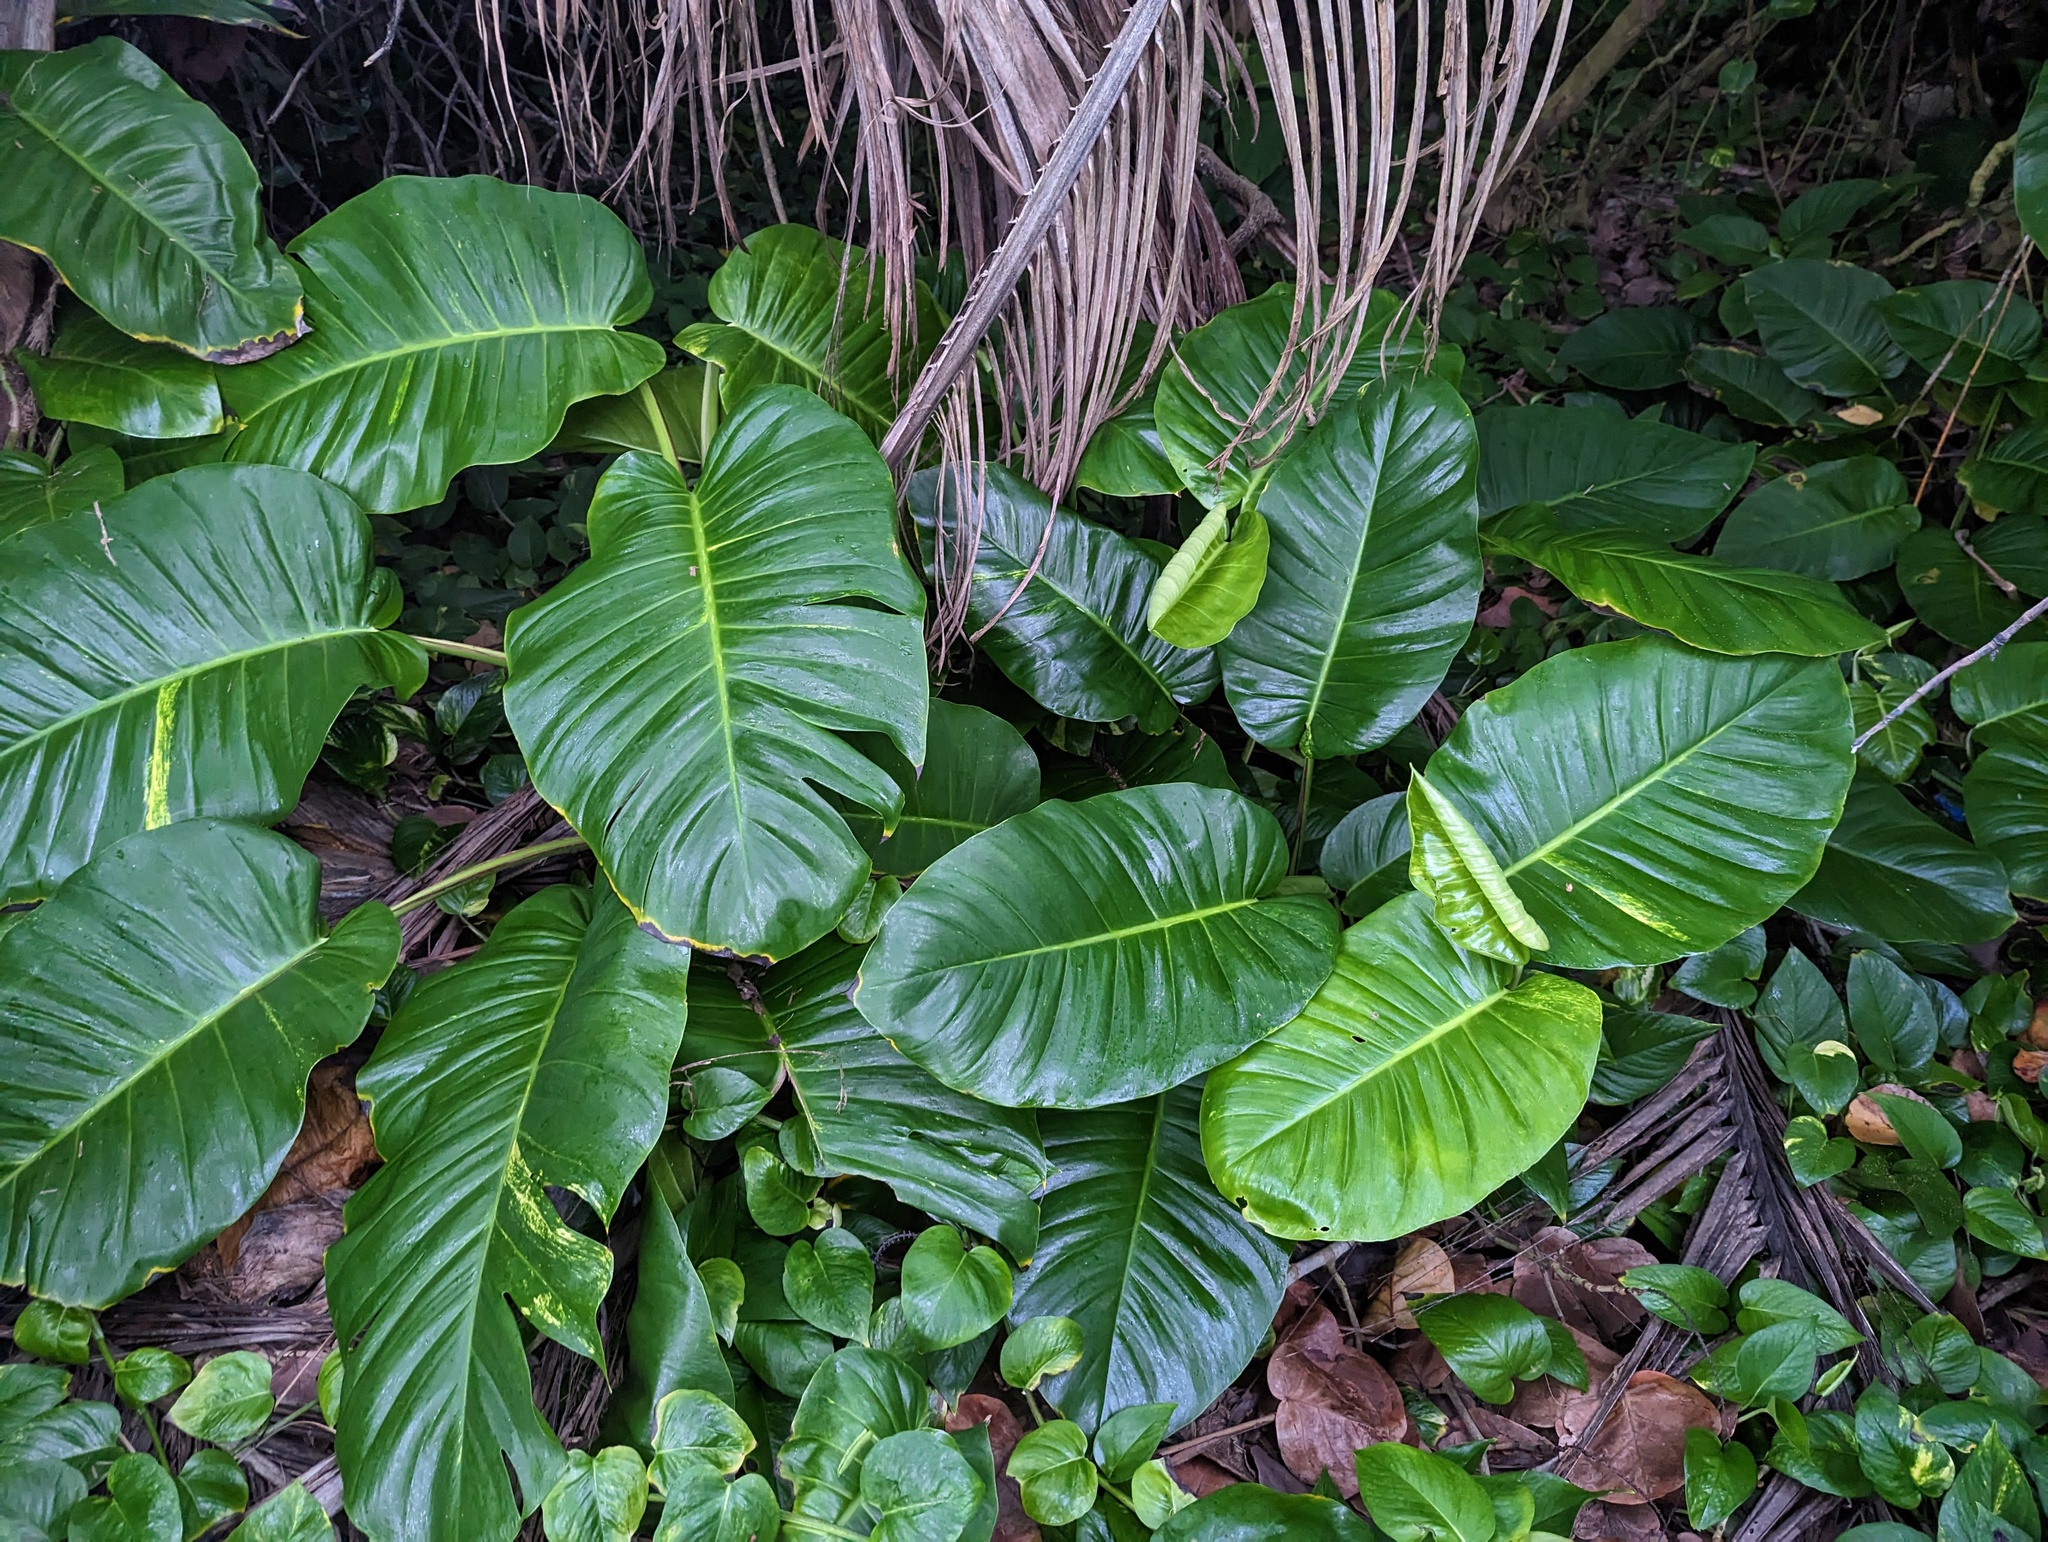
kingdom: Plantae
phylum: Tracheophyta
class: Liliopsida
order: Alismatales
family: Araceae
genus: Epipremnum
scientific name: Epipremnum aureum
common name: Golden hunter's-robe
